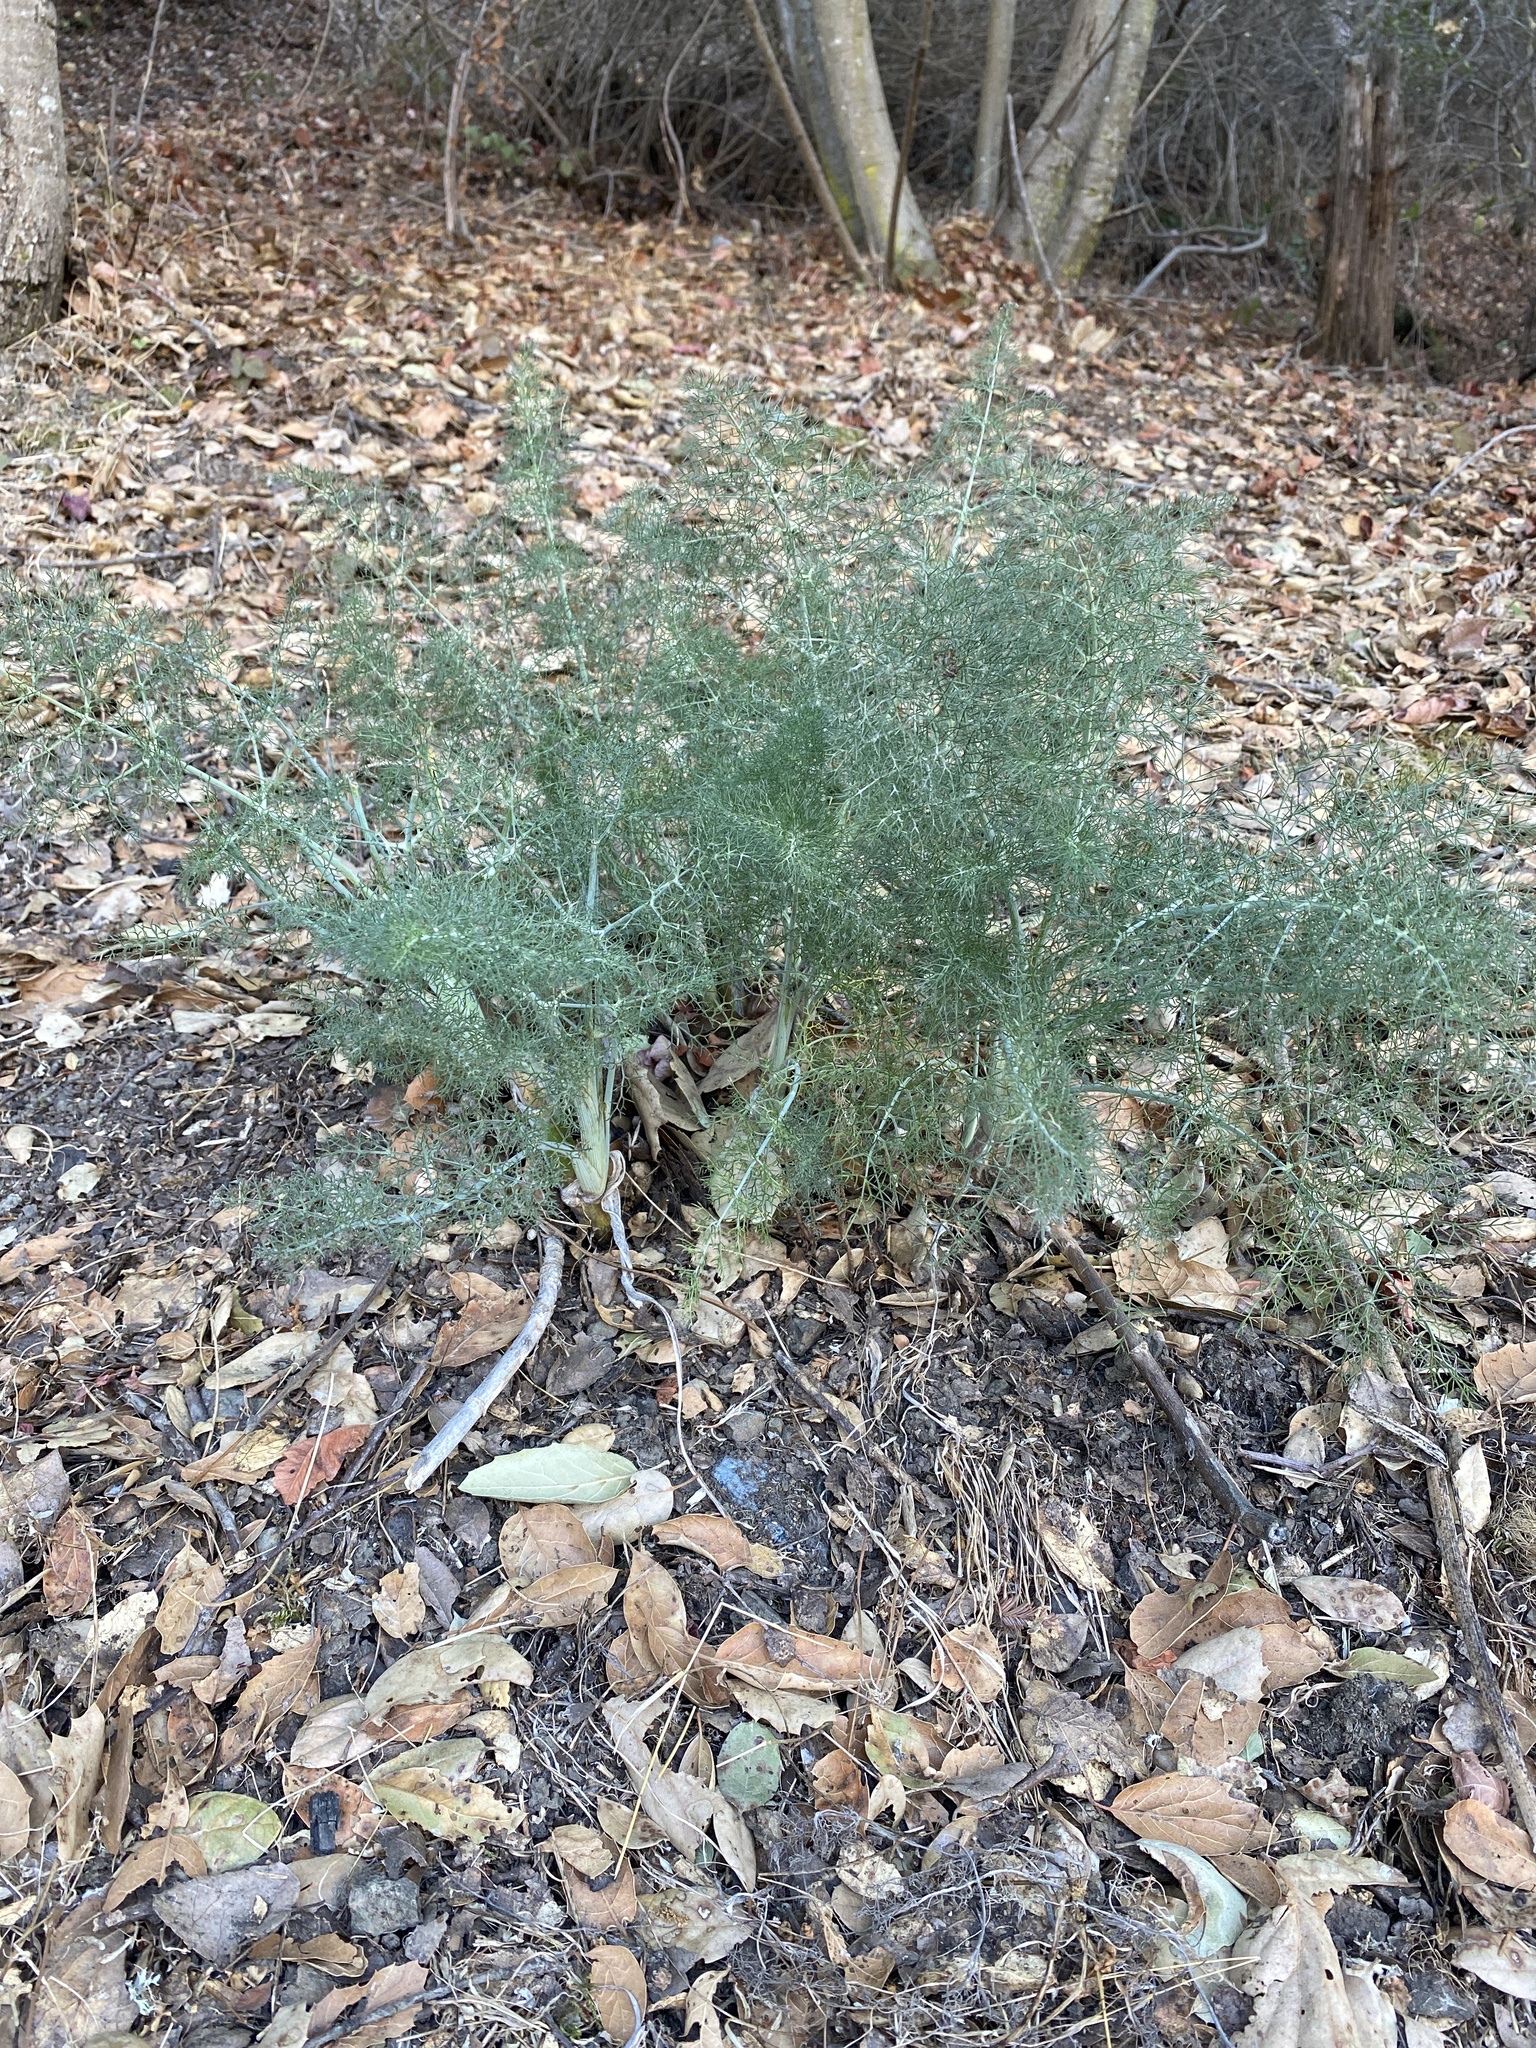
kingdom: Plantae
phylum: Tracheophyta
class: Magnoliopsida
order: Apiales
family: Apiaceae
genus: Foeniculum
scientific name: Foeniculum vulgare
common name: Fennel
